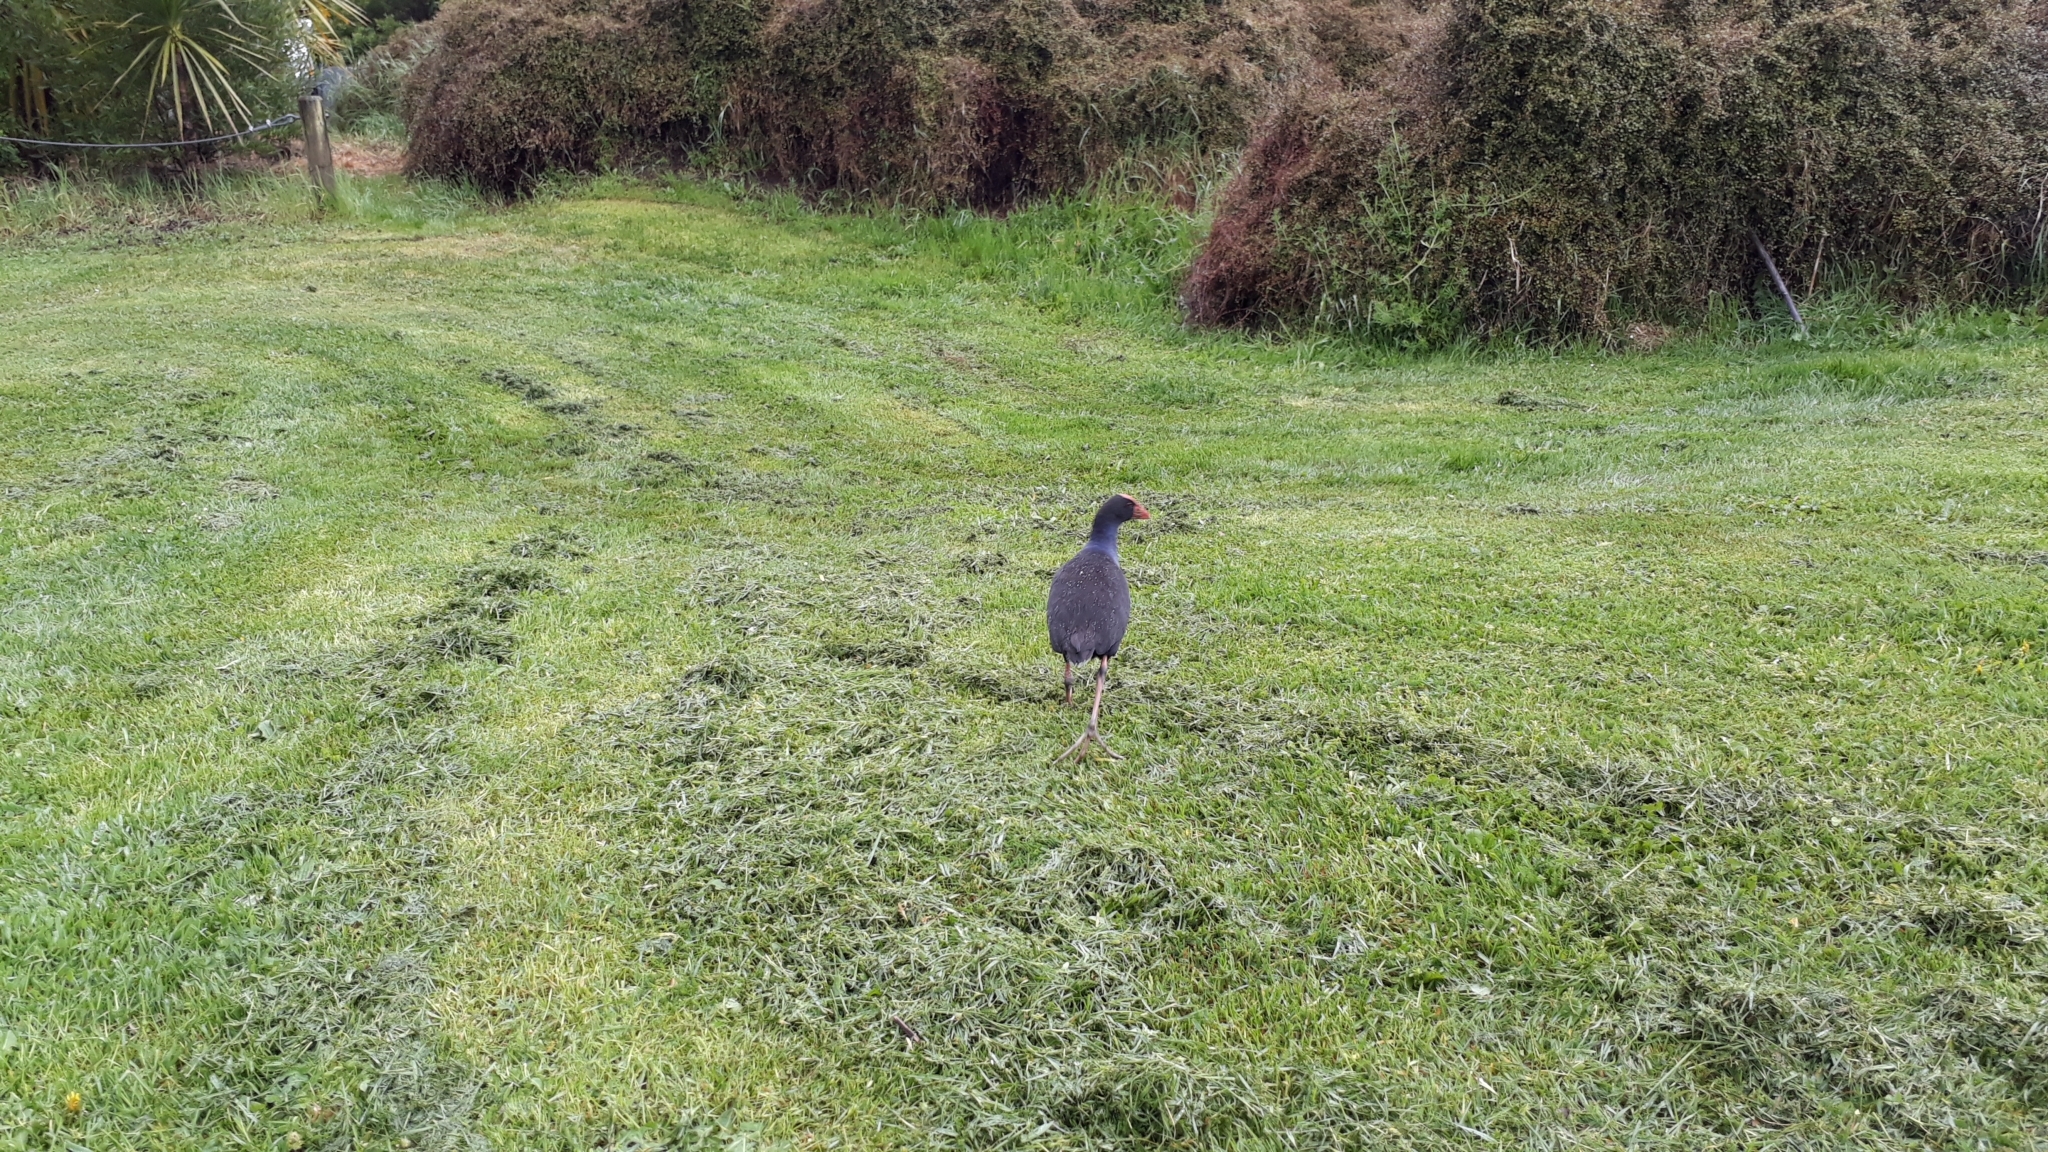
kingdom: Animalia
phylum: Chordata
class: Aves
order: Gruiformes
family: Rallidae
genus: Porphyrio
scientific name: Porphyrio melanotus
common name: Australasian swamphen
